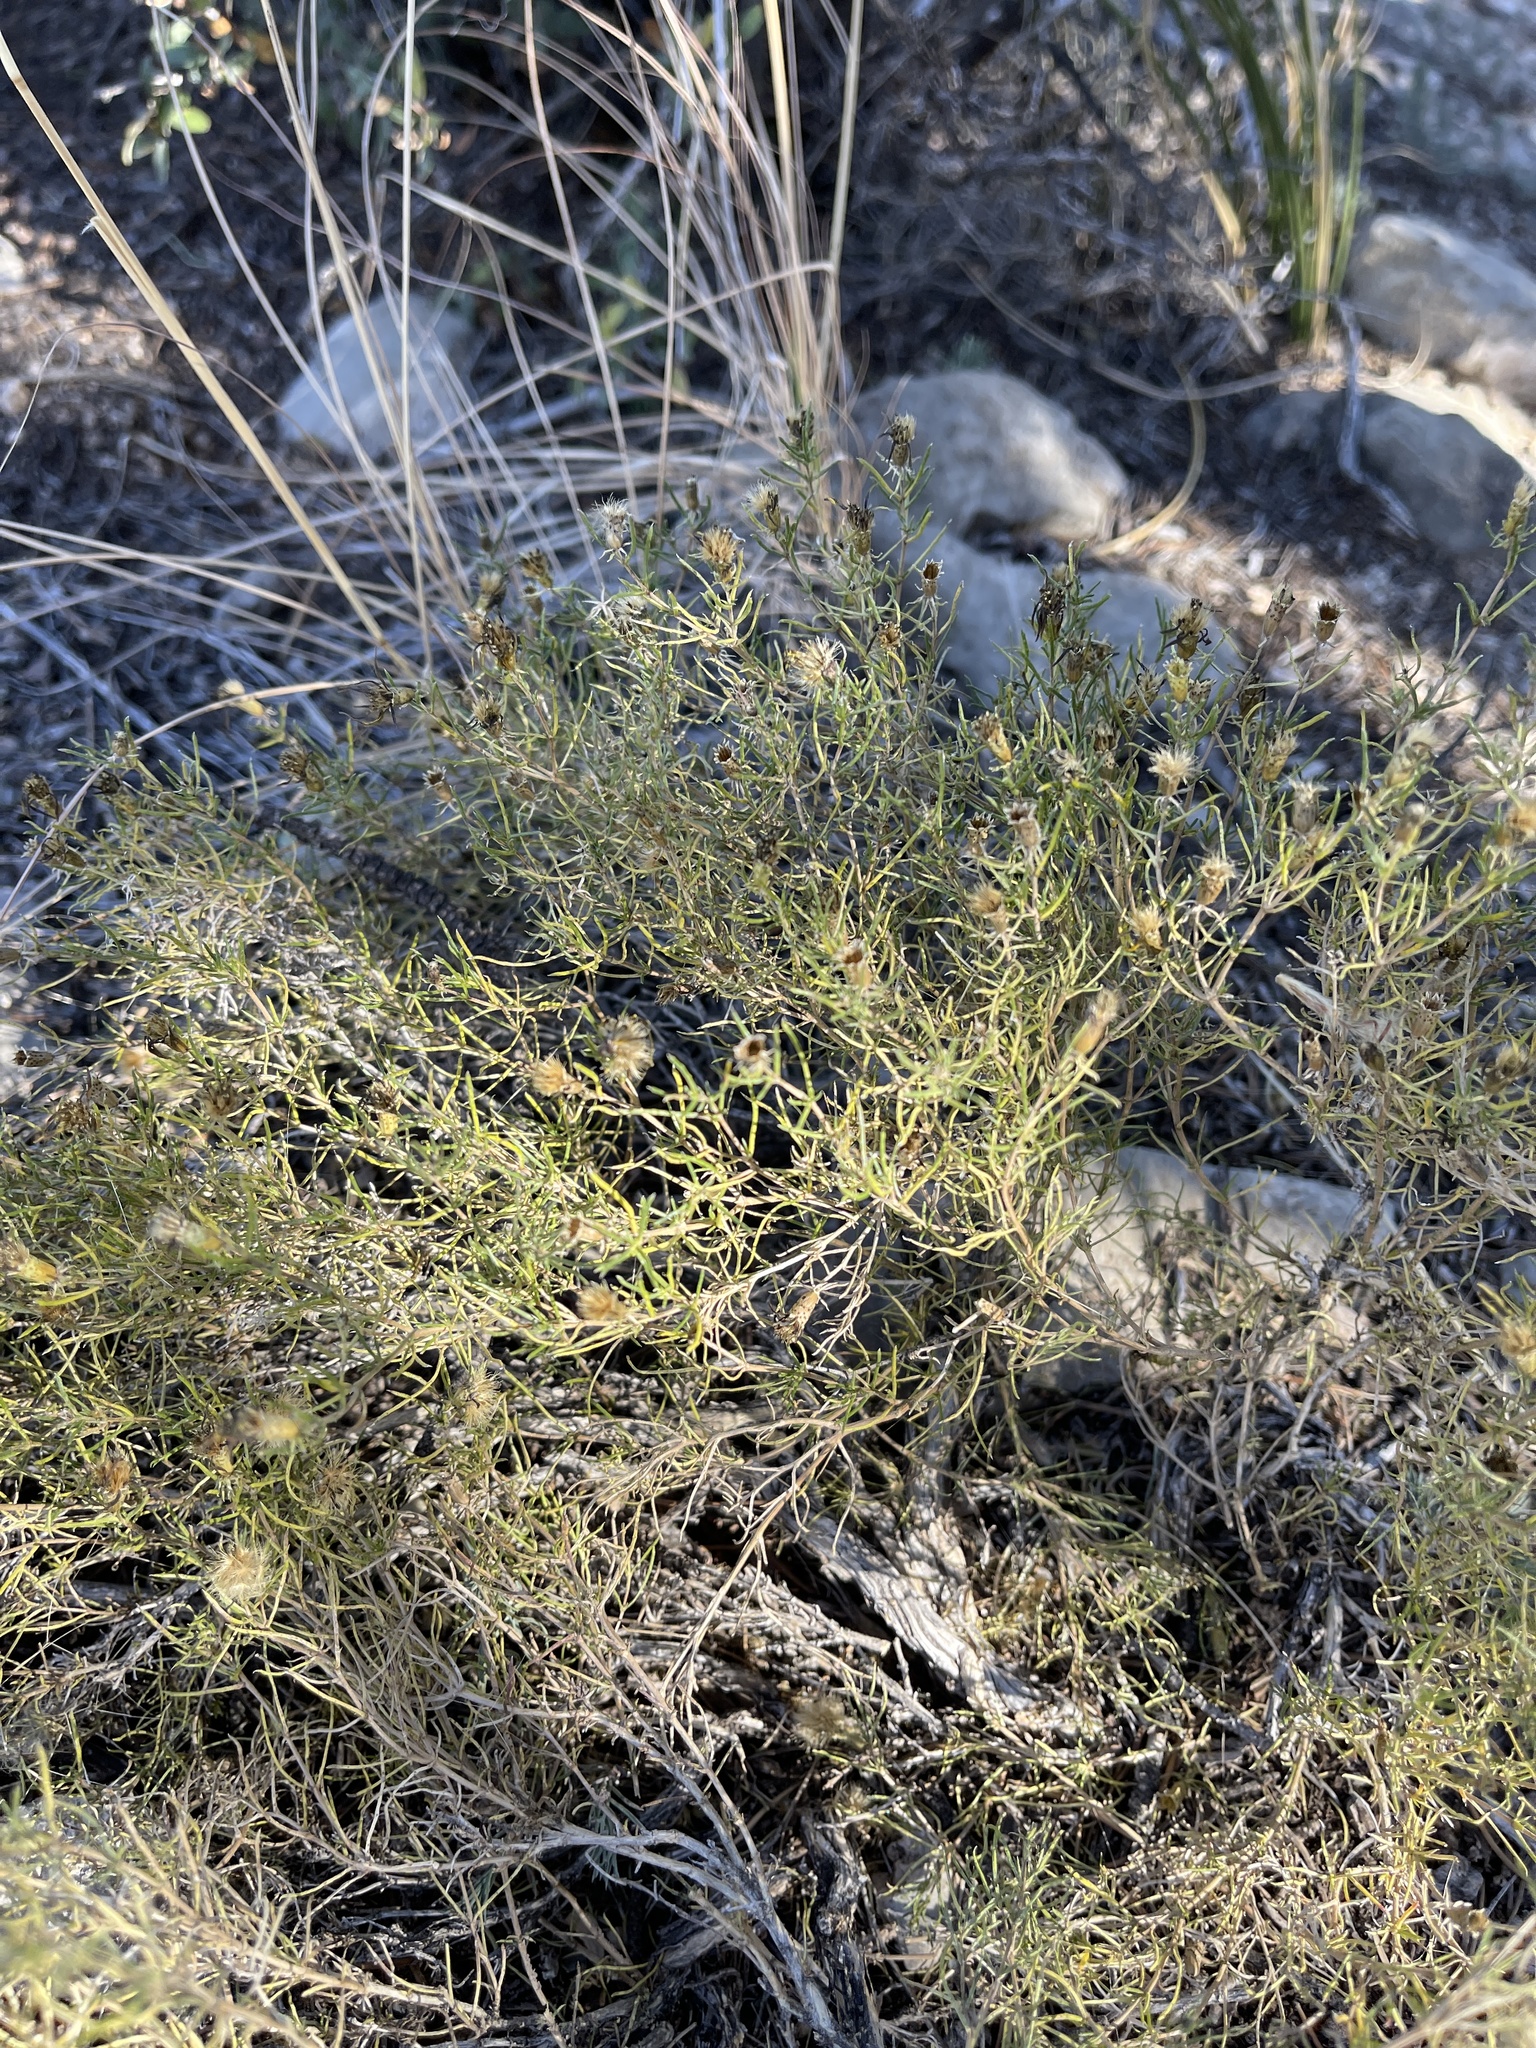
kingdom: Plantae
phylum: Tracheophyta
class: Magnoliopsida
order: Asterales
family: Asteraceae
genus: Thymophylla
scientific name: Thymophylla acerosa
